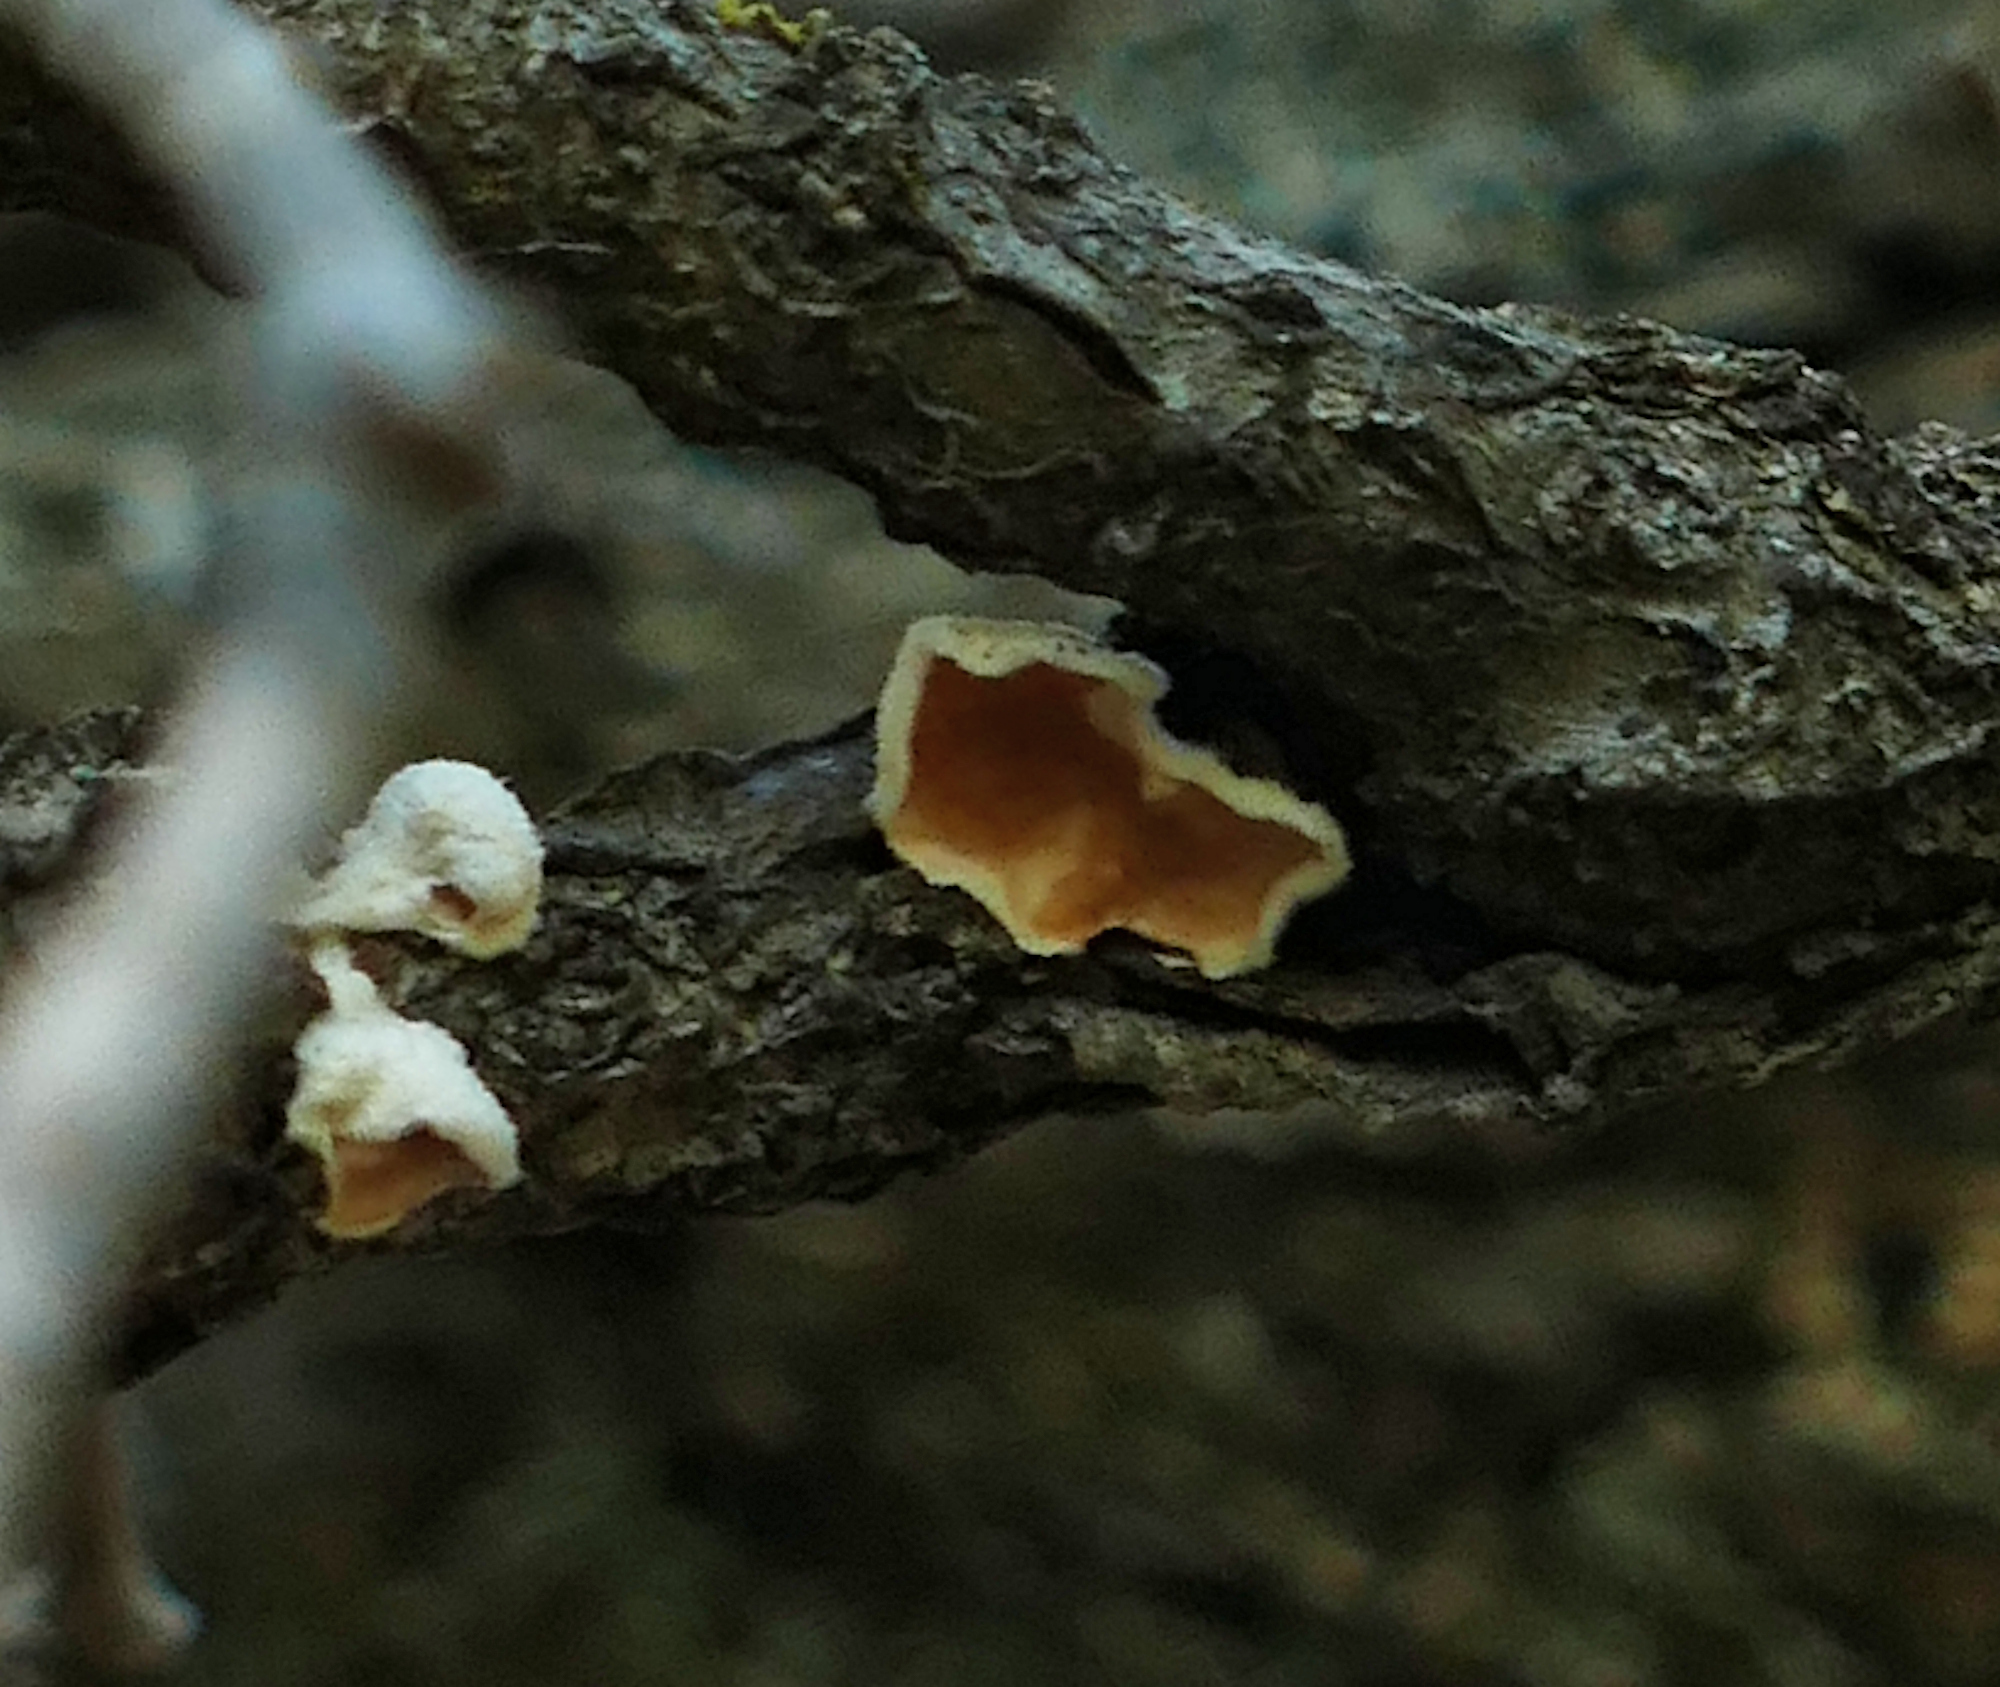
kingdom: Fungi
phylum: Basidiomycota
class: Agaricomycetes
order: Polyporales
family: Irpicaceae
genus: Byssomerulius
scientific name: Byssomerulius corium
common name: Netted crust
